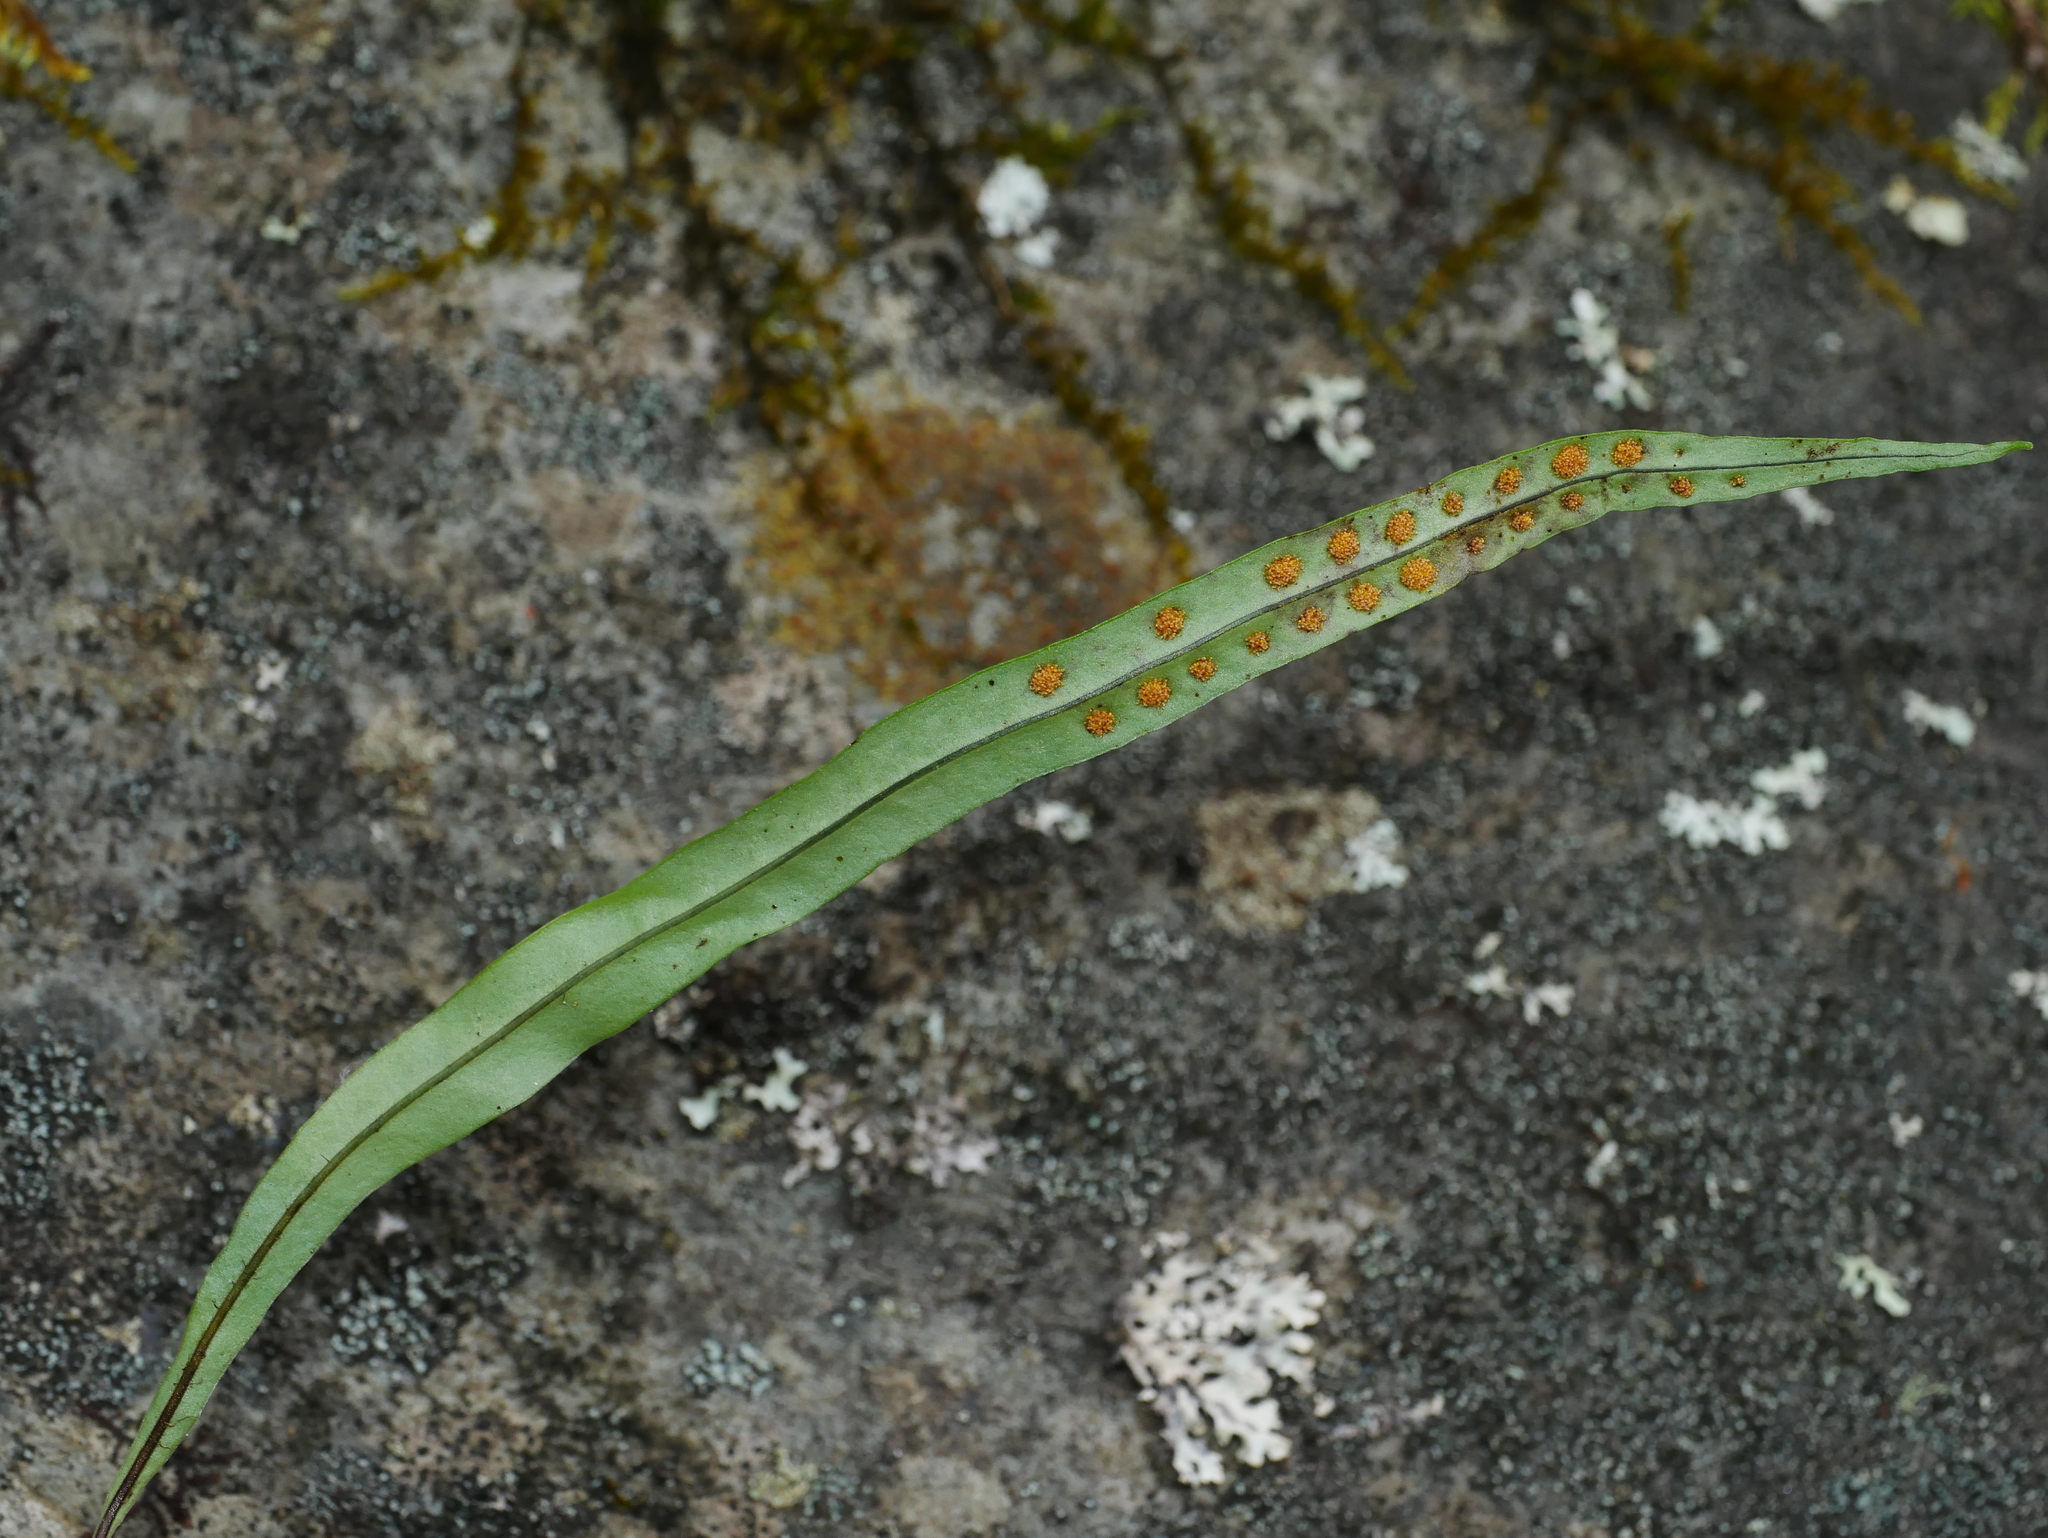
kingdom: Plantae
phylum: Tracheophyta
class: Polypodiopsida
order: Polypodiales
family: Polypodiaceae
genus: Lepisorus
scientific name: Lepisorus pseudoussuriensis
